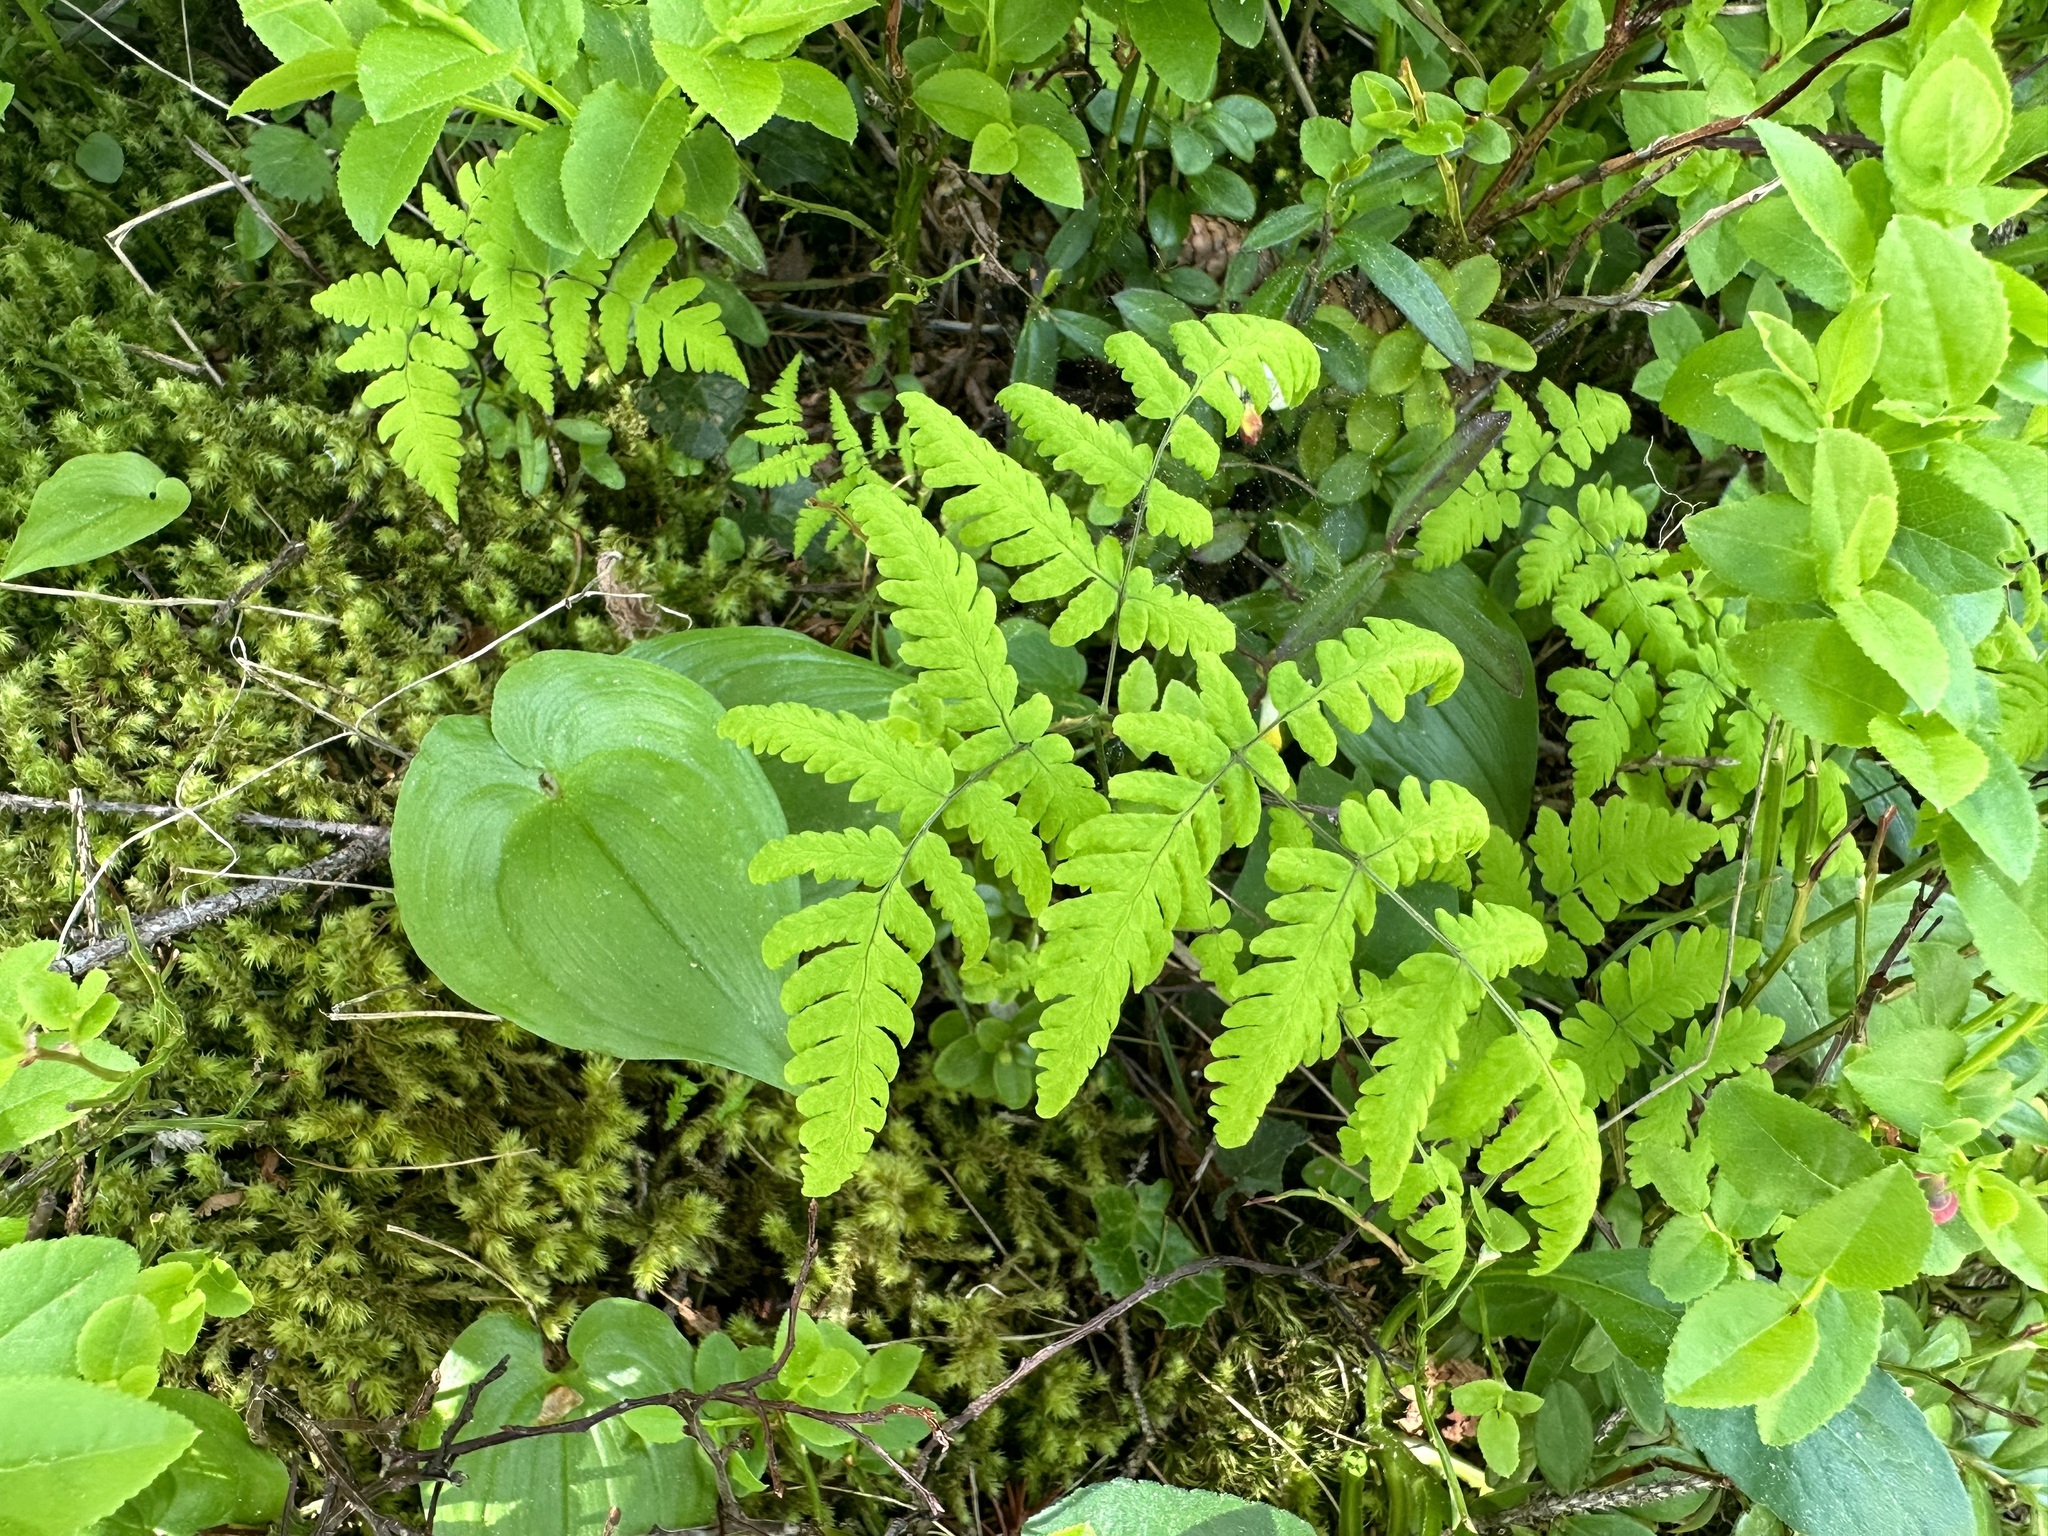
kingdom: Plantae
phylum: Tracheophyta
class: Polypodiopsida
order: Polypodiales
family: Cystopteridaceae
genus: Gymnocarpium
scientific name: Gymnocarpium dryopteris
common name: Oak fern
